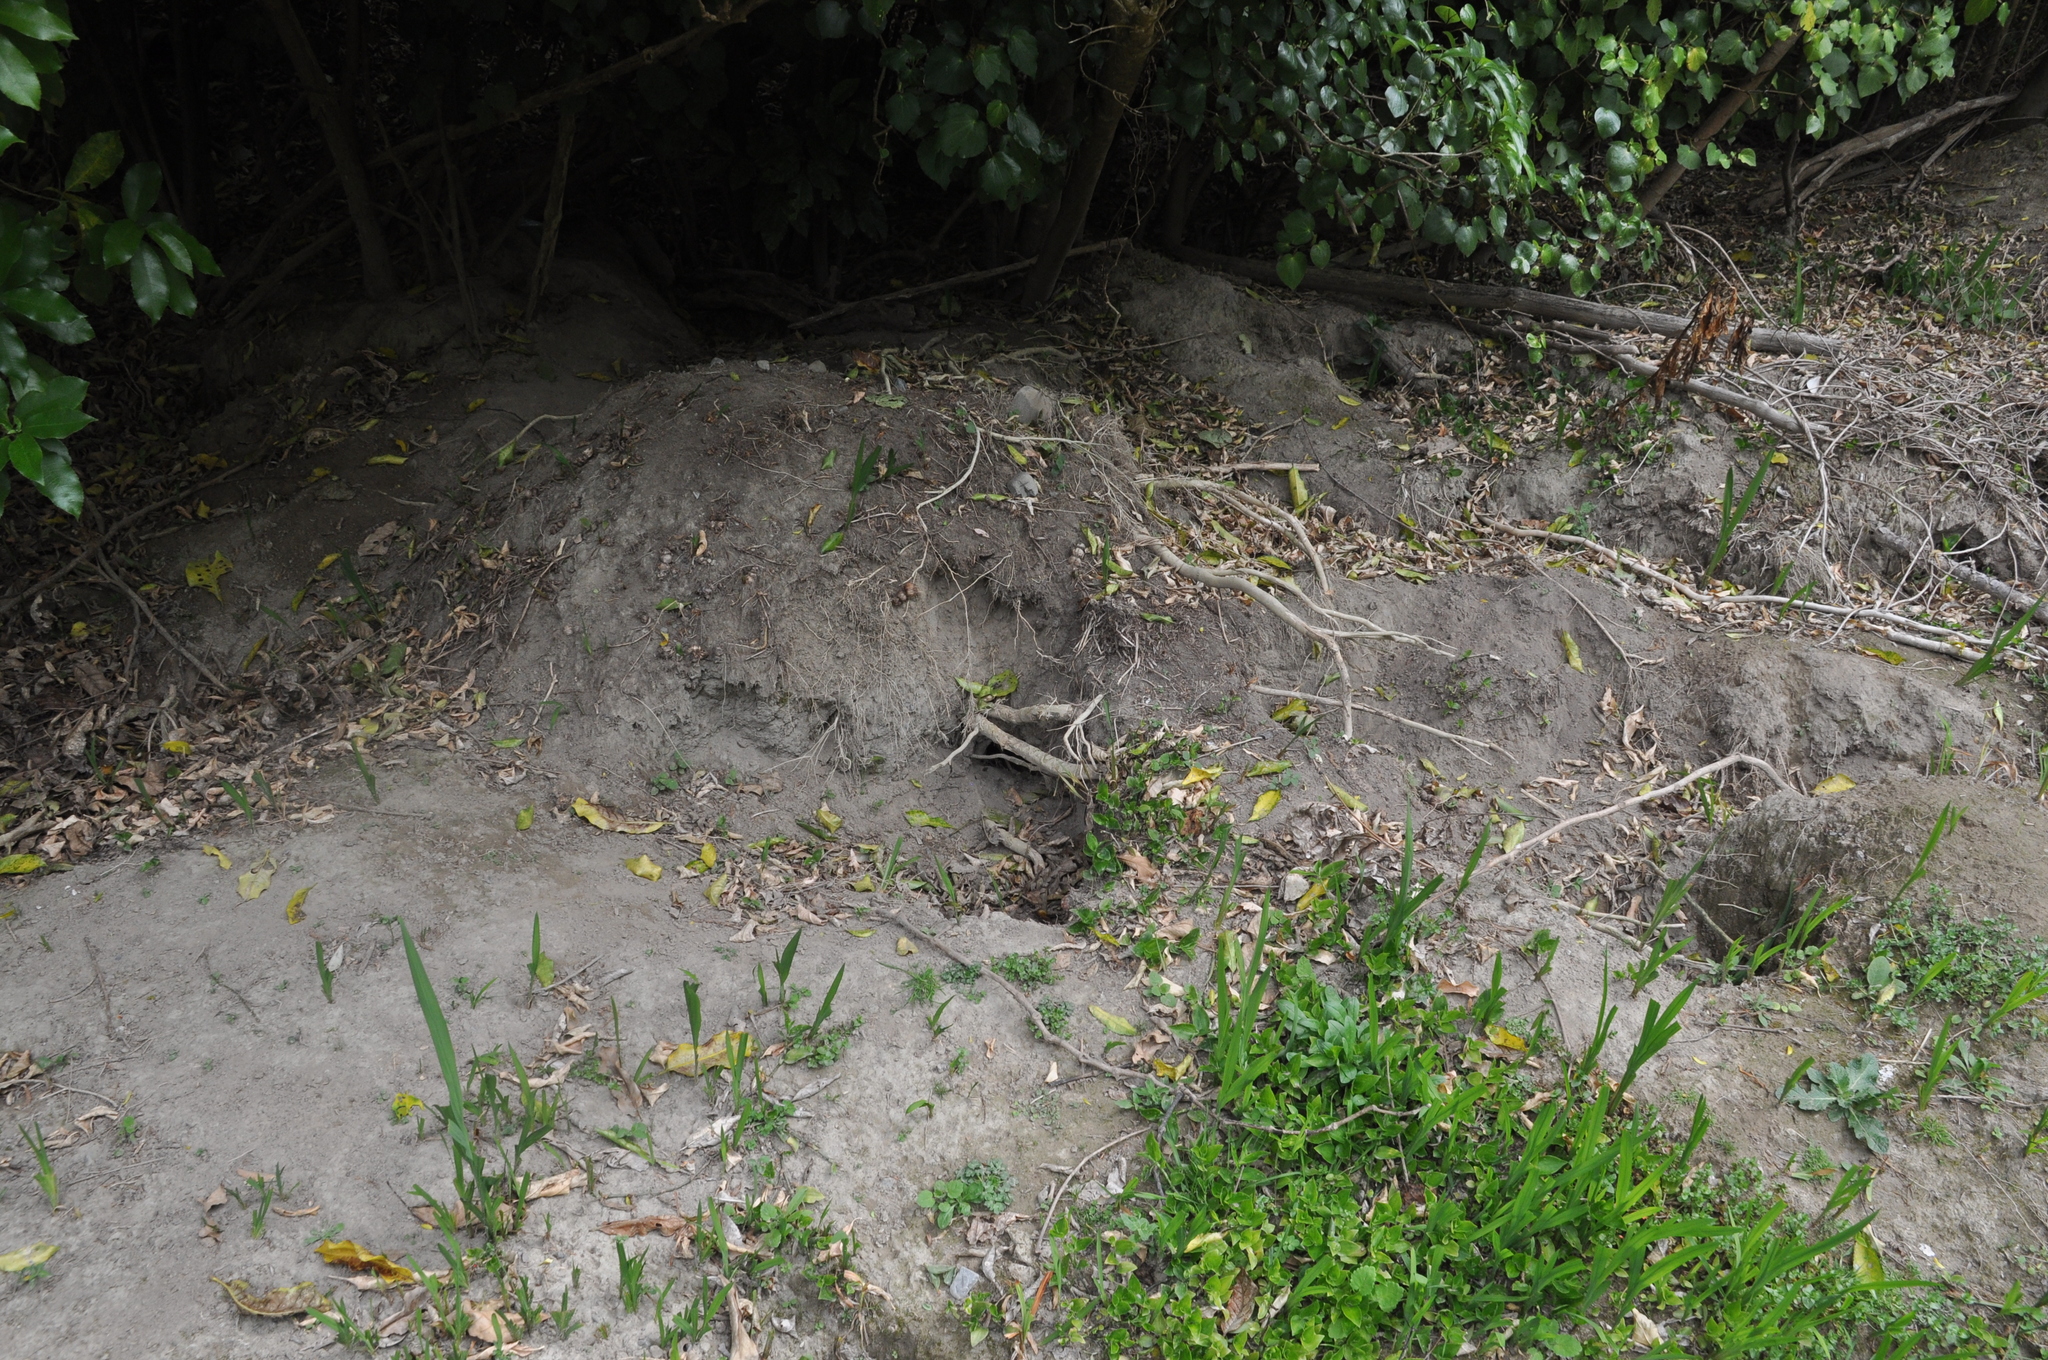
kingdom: Animalia
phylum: Chordata
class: Mammalia
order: Lagomorpha
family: Leporidae
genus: Oryctolagus
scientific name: Oryctolagus cuniculus
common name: European rabbit
